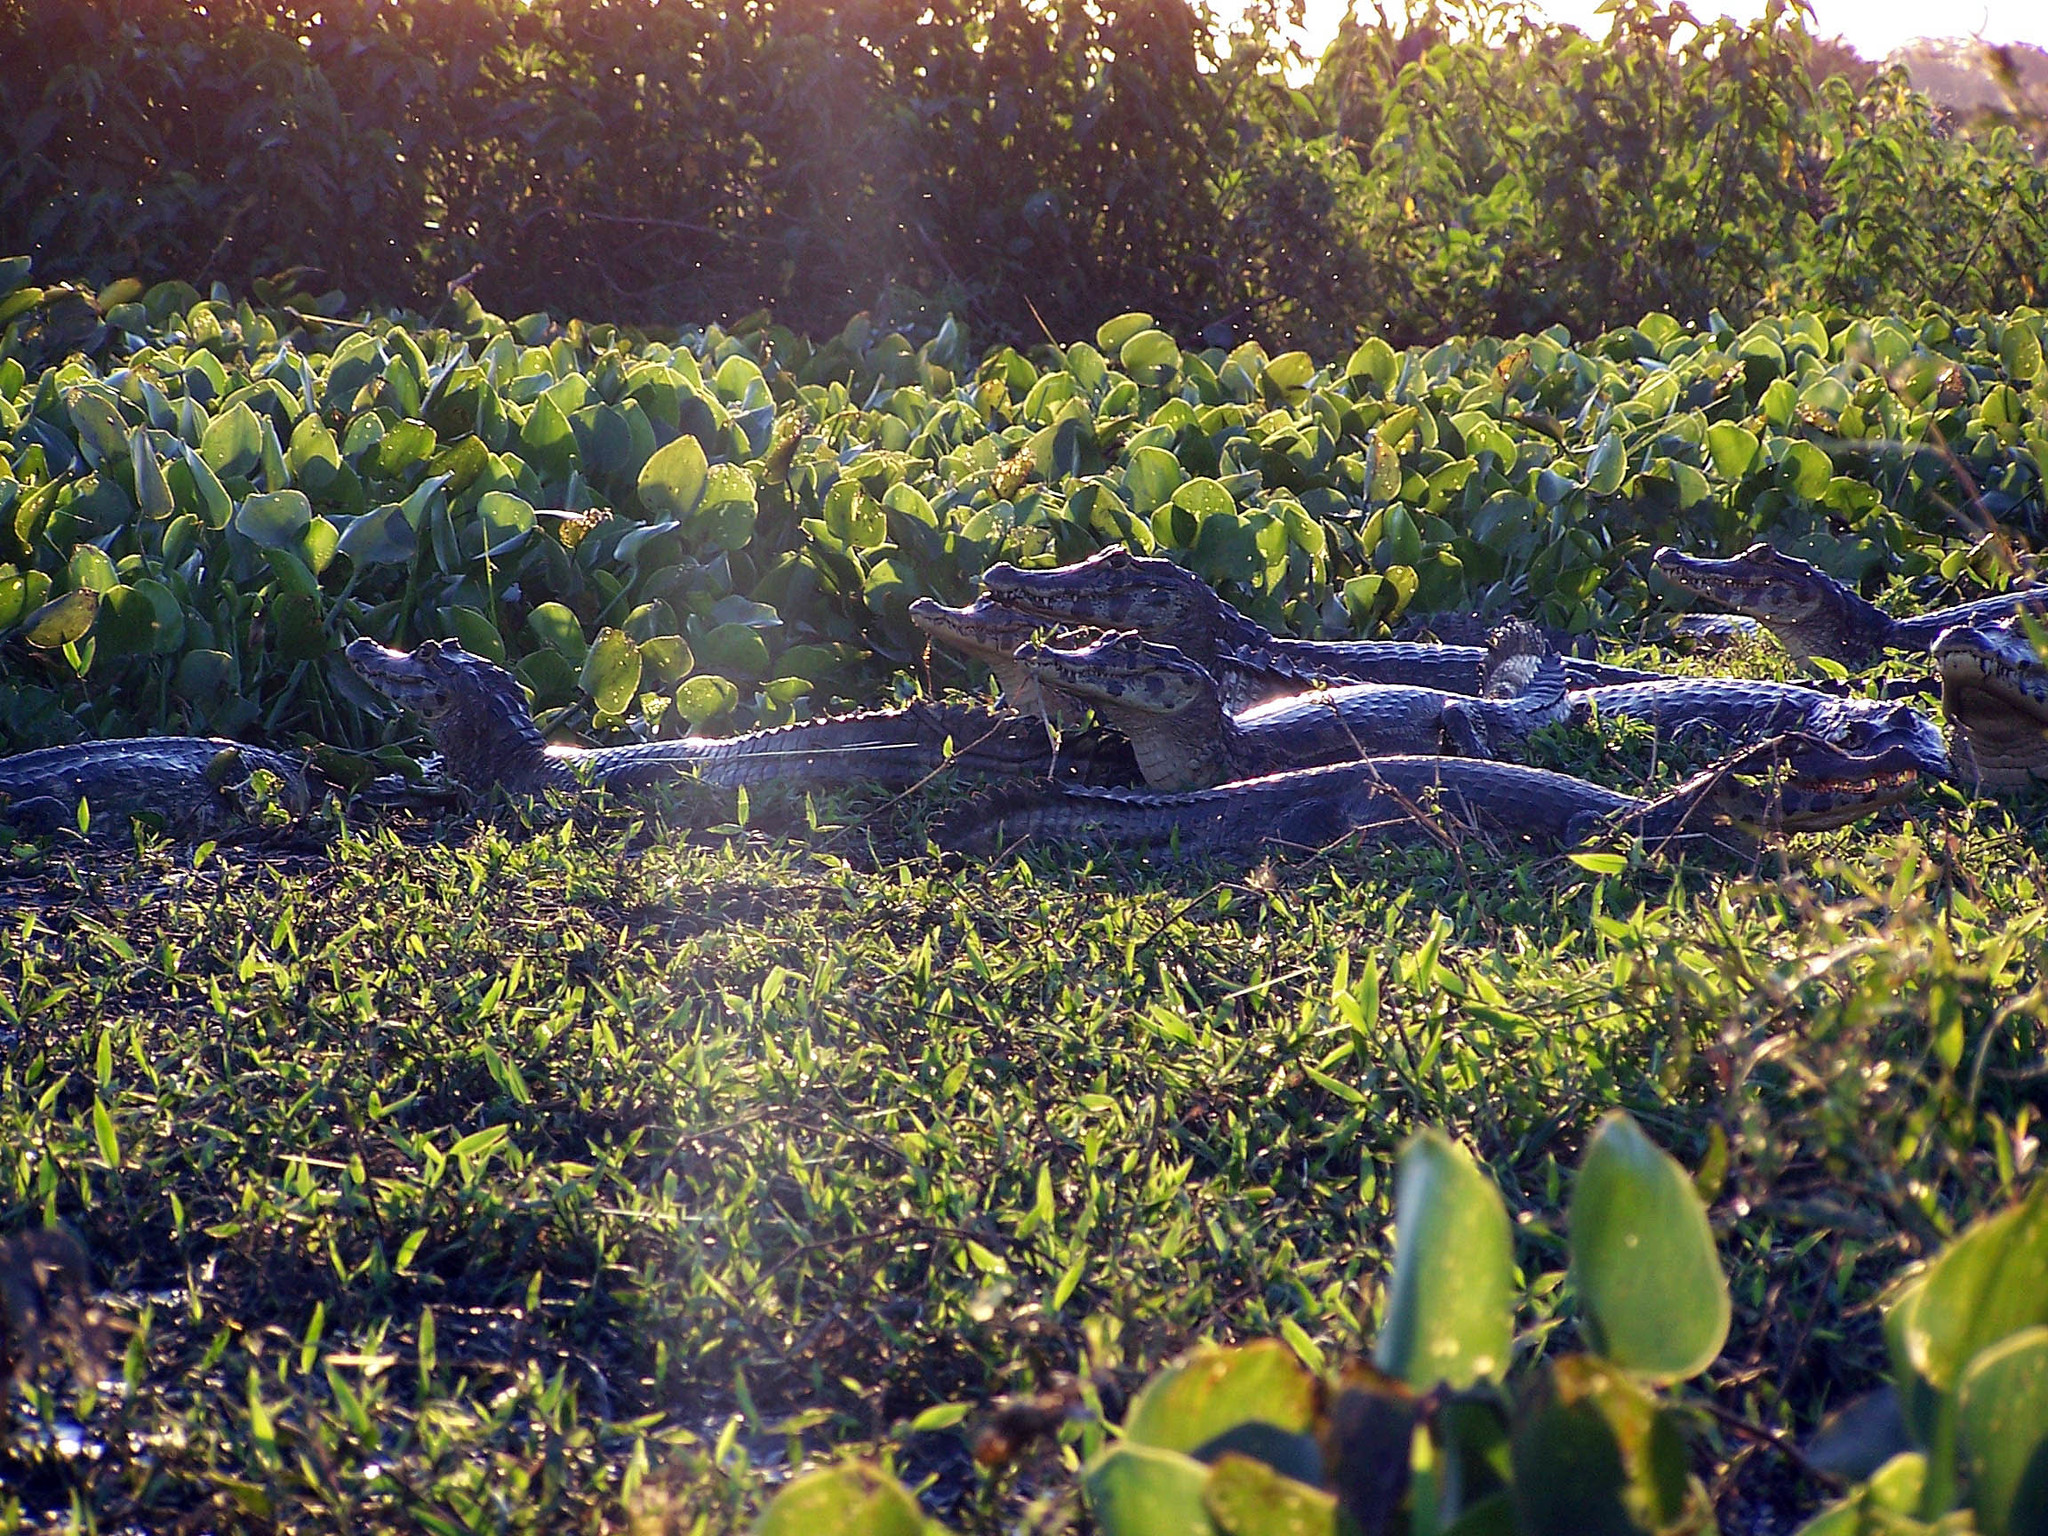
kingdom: Animalia
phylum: Chordata
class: Crocodylia
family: Alligatoridae
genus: Caiman
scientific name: Caiman yacare
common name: Yacare caiman
